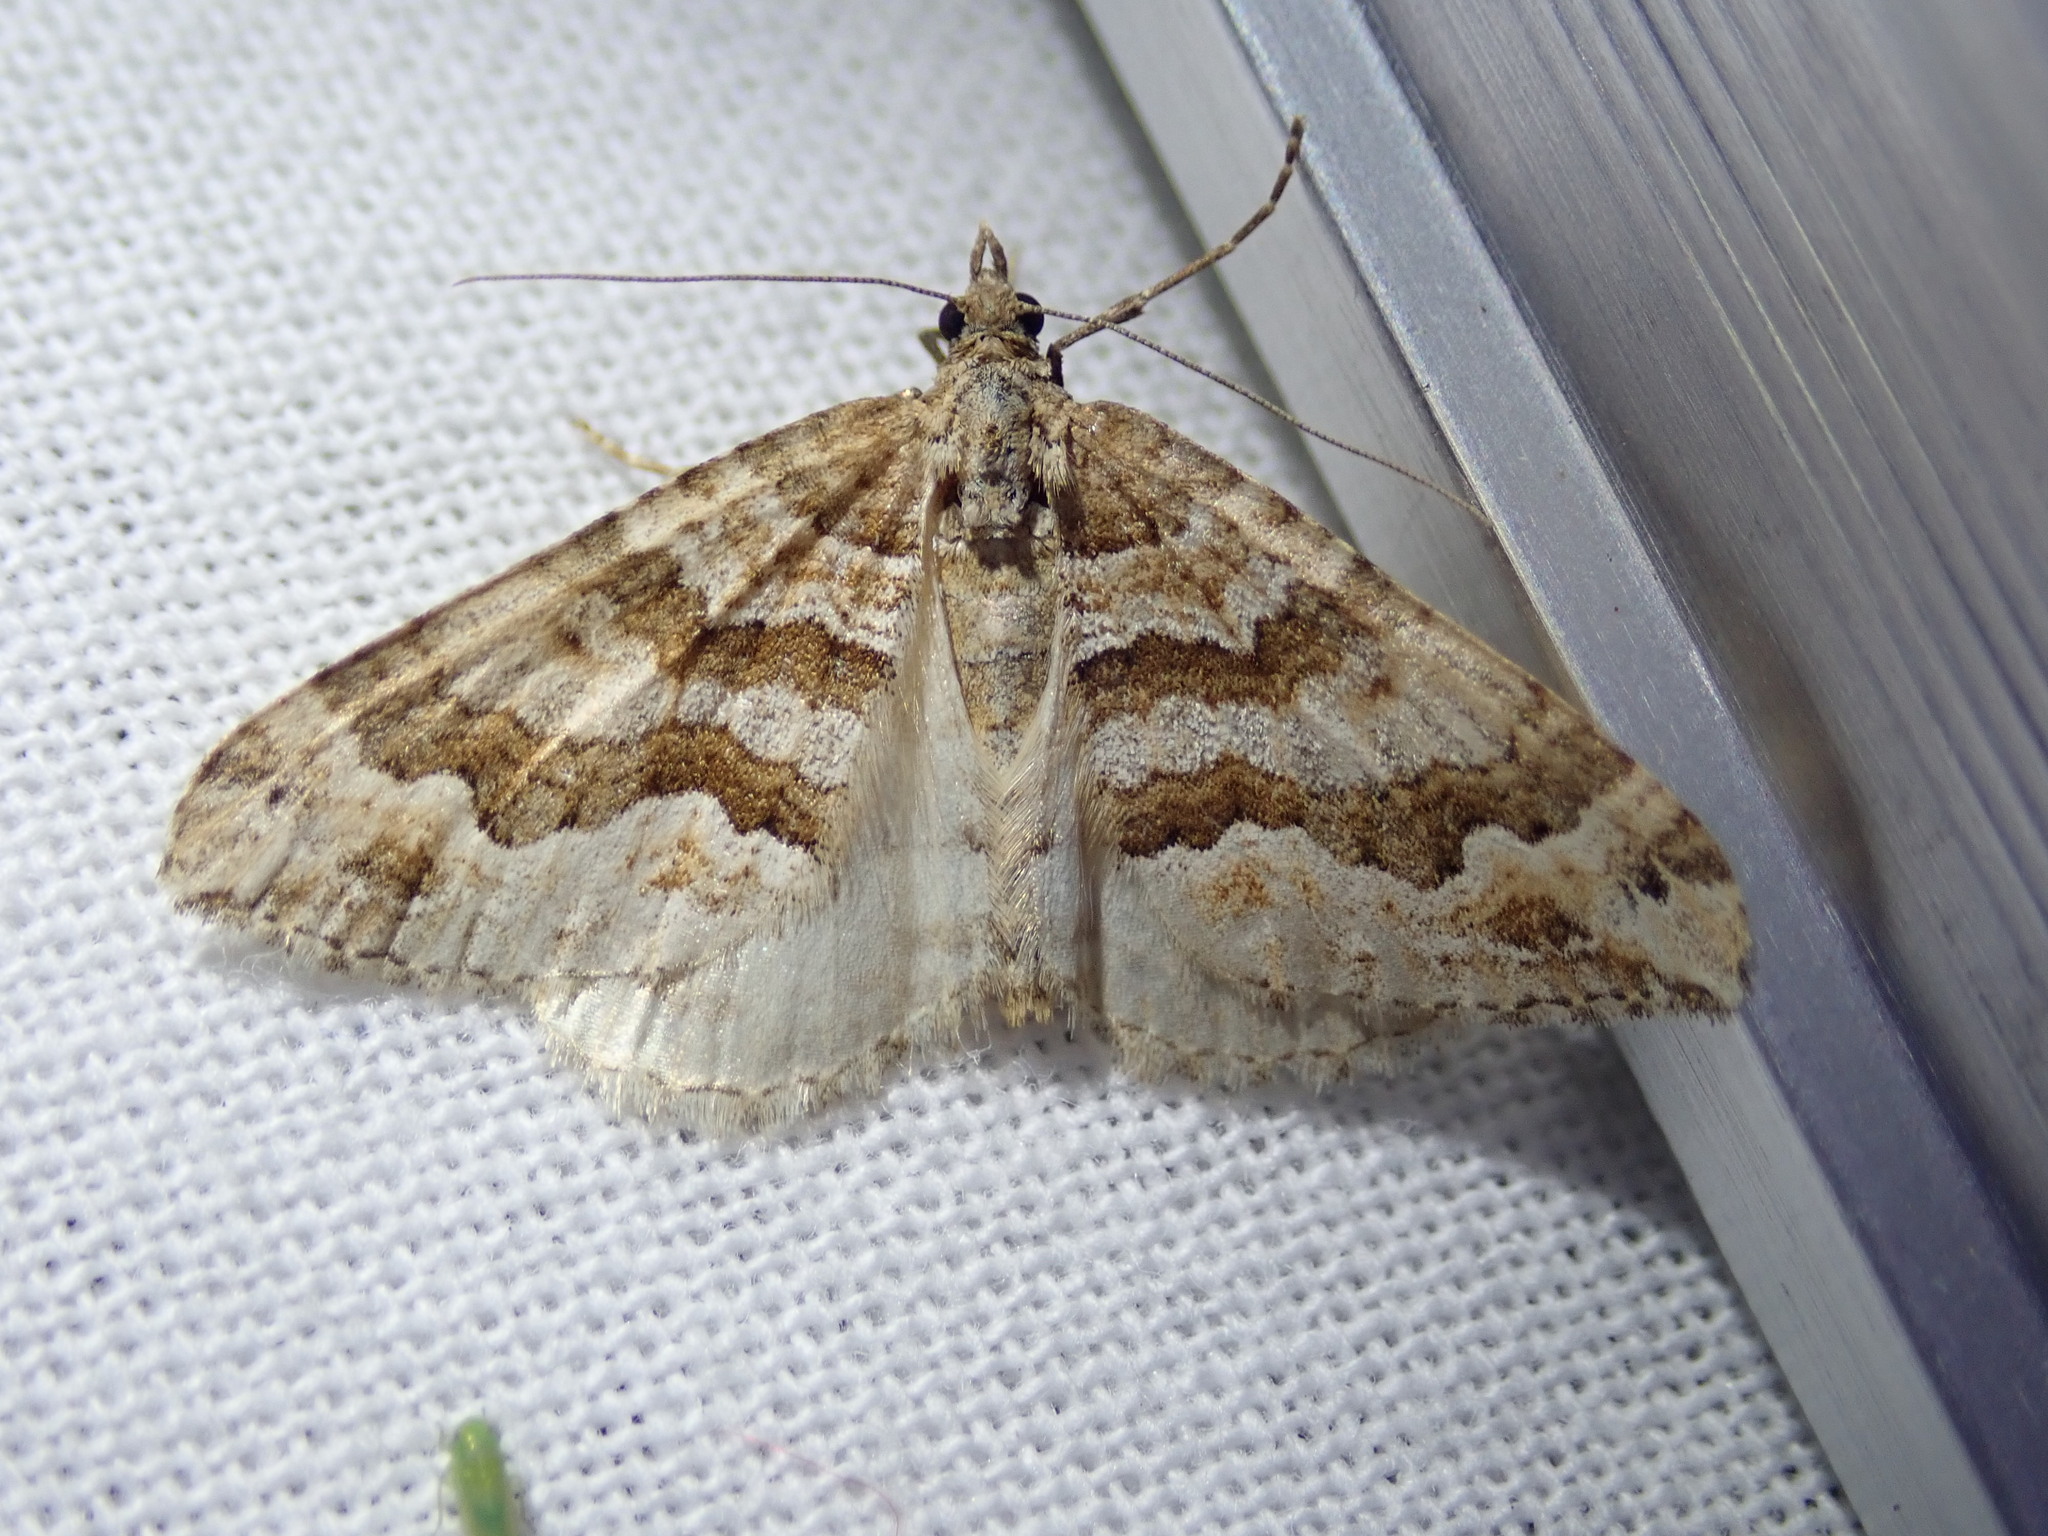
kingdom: Animalia
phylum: Arthropoda
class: Insecta
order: Lepidoptera
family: Geometridae
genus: Perizoma
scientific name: Perizoma epictata
